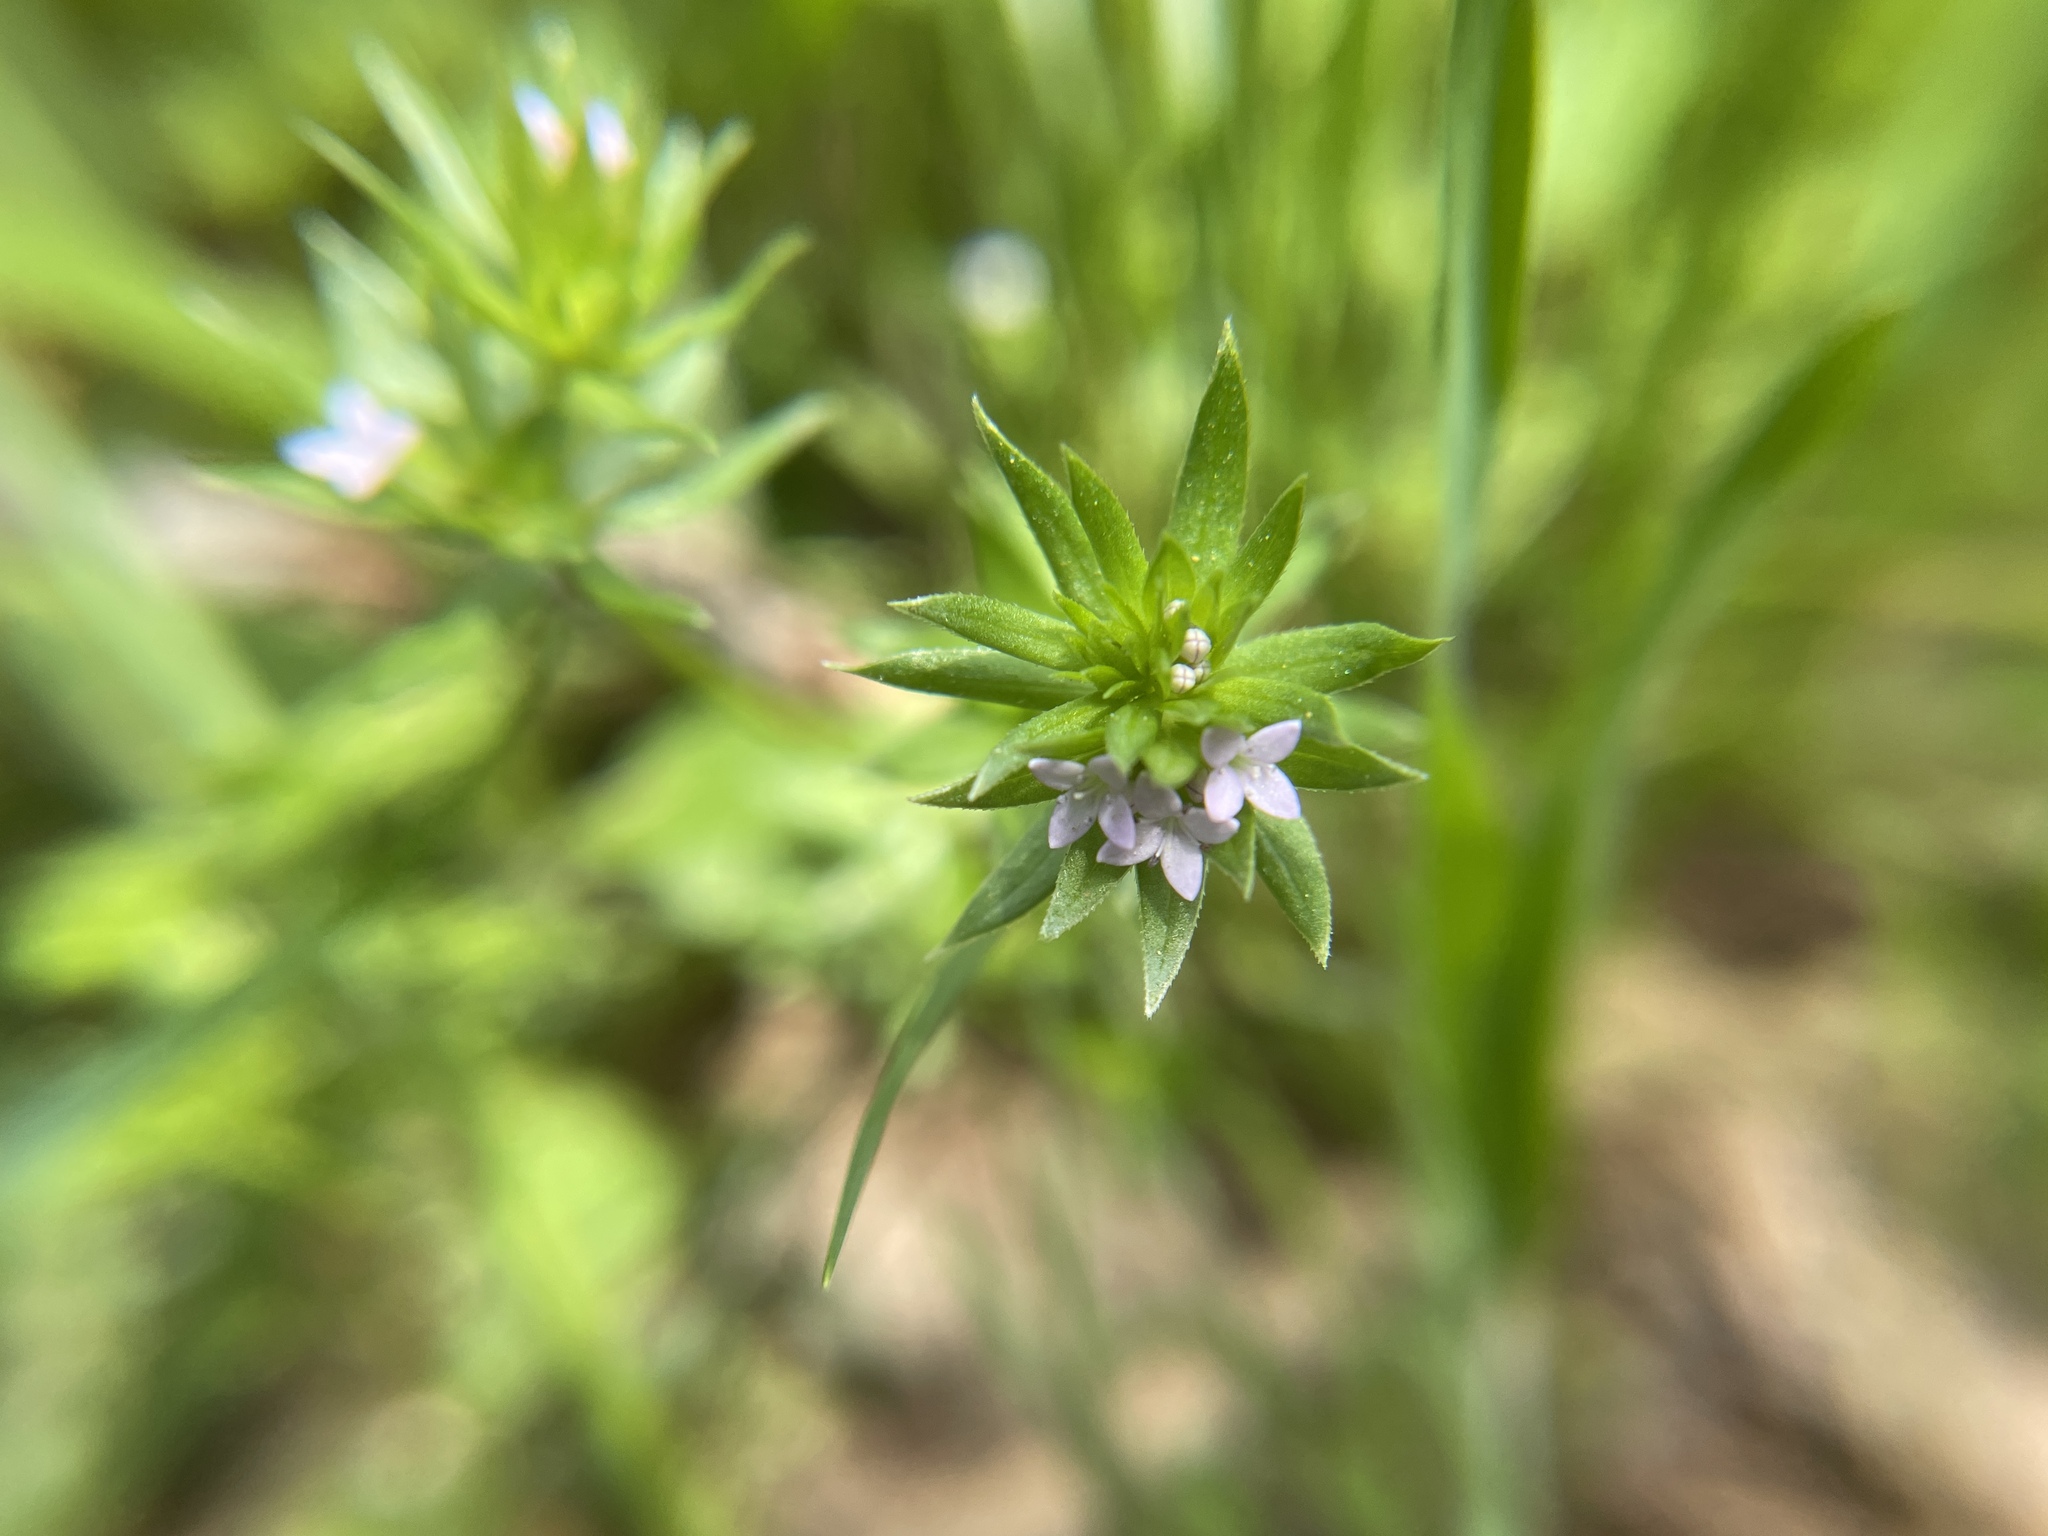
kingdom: Plantae
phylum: Tracheophyta
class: Magnoliopsida
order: Gentianales
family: Rubiaceae
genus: Sherardia
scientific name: Sherardia arvensis
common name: Field madder
